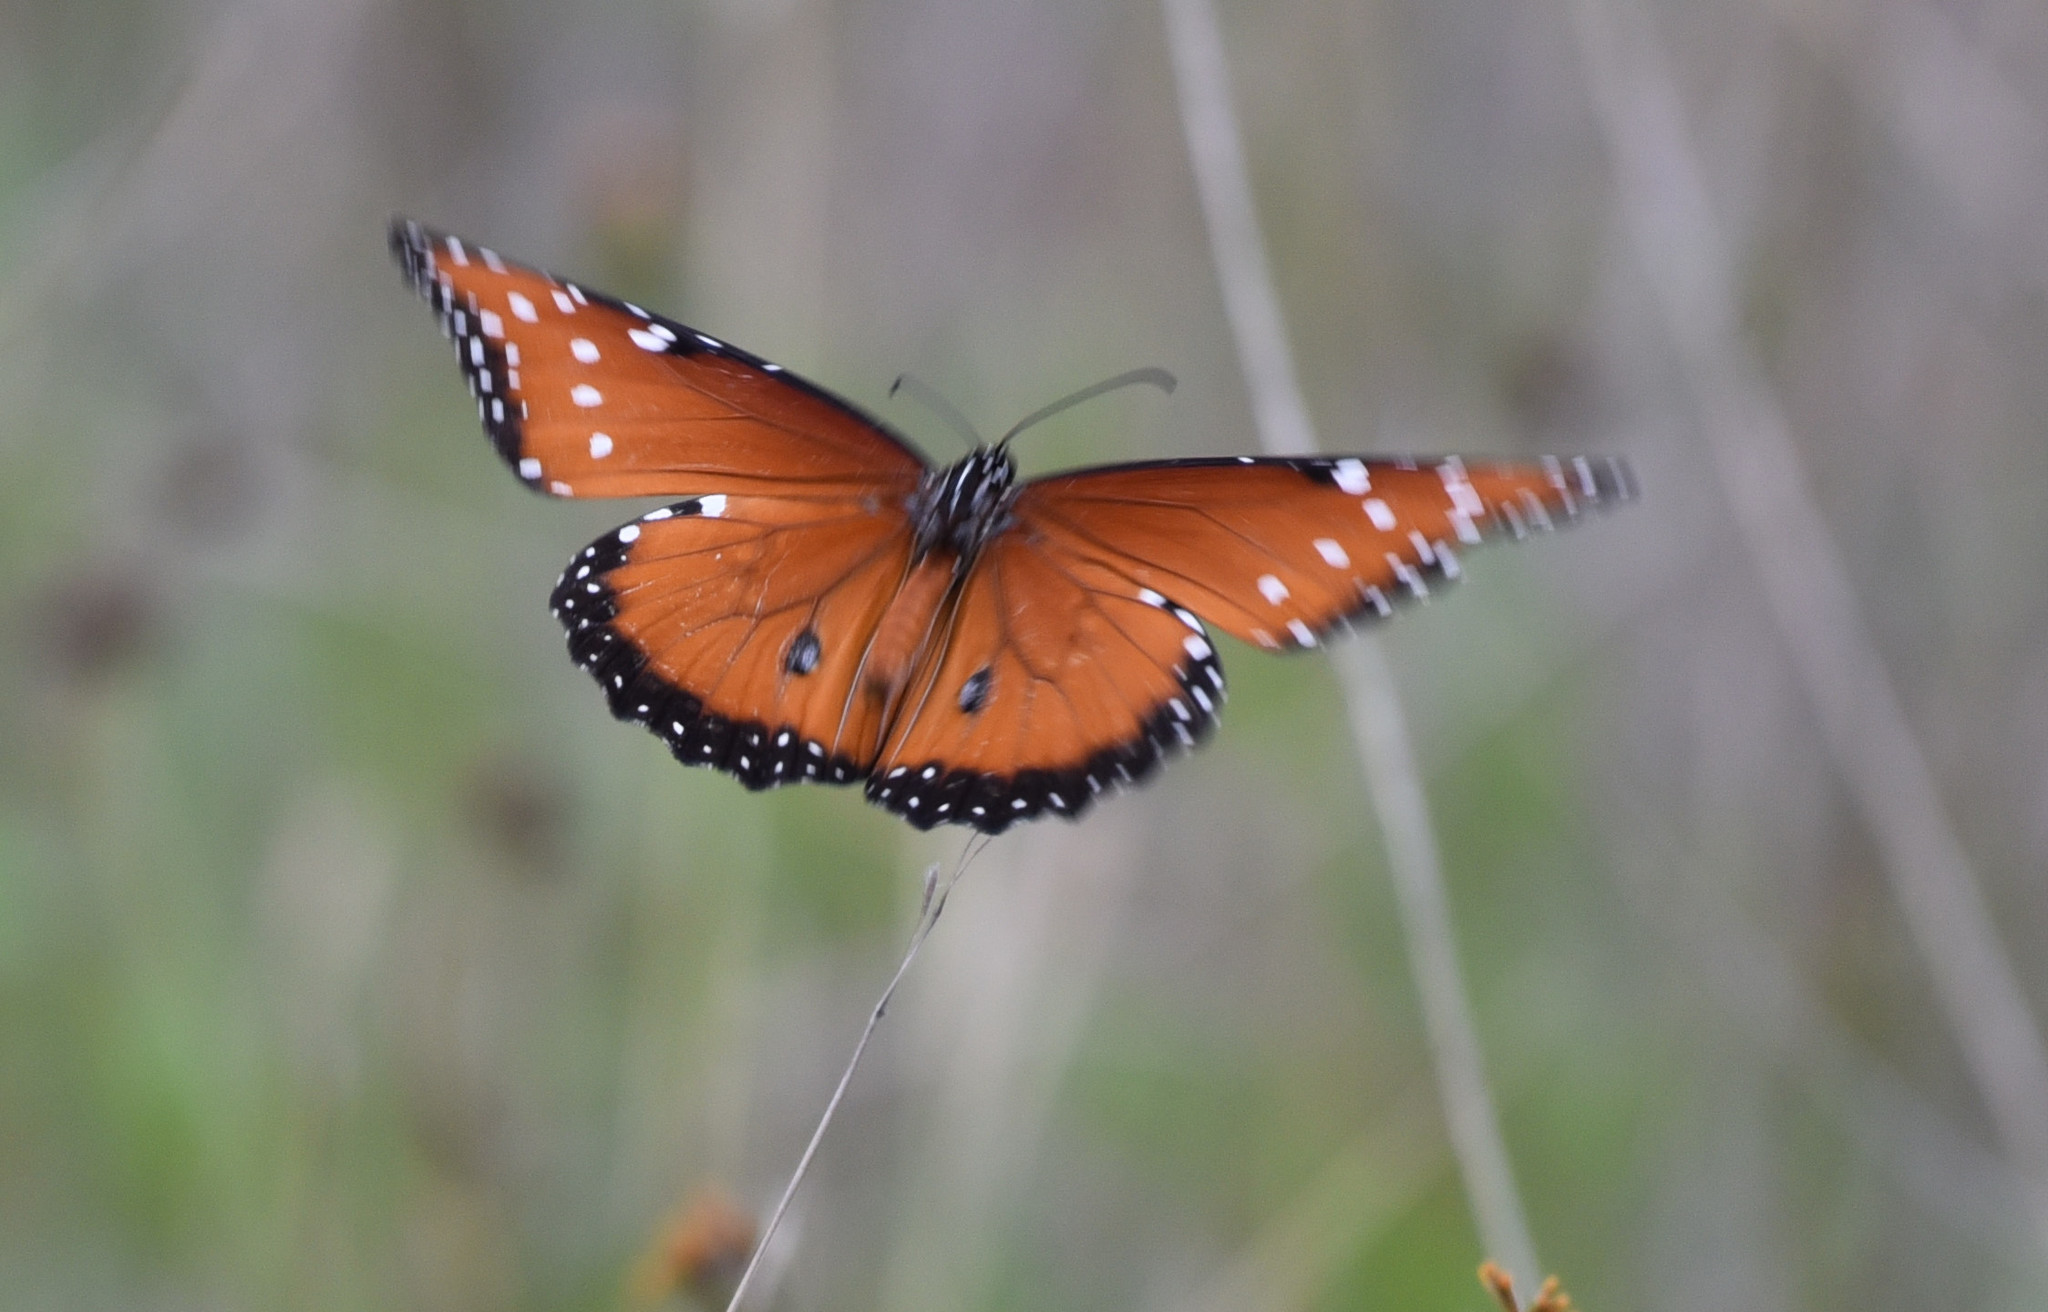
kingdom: Animalia
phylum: Arthropoda
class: Insecta
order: Lepidoptera
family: Nymphalidae
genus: Danaus
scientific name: Danaus gilippus
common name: Queen
